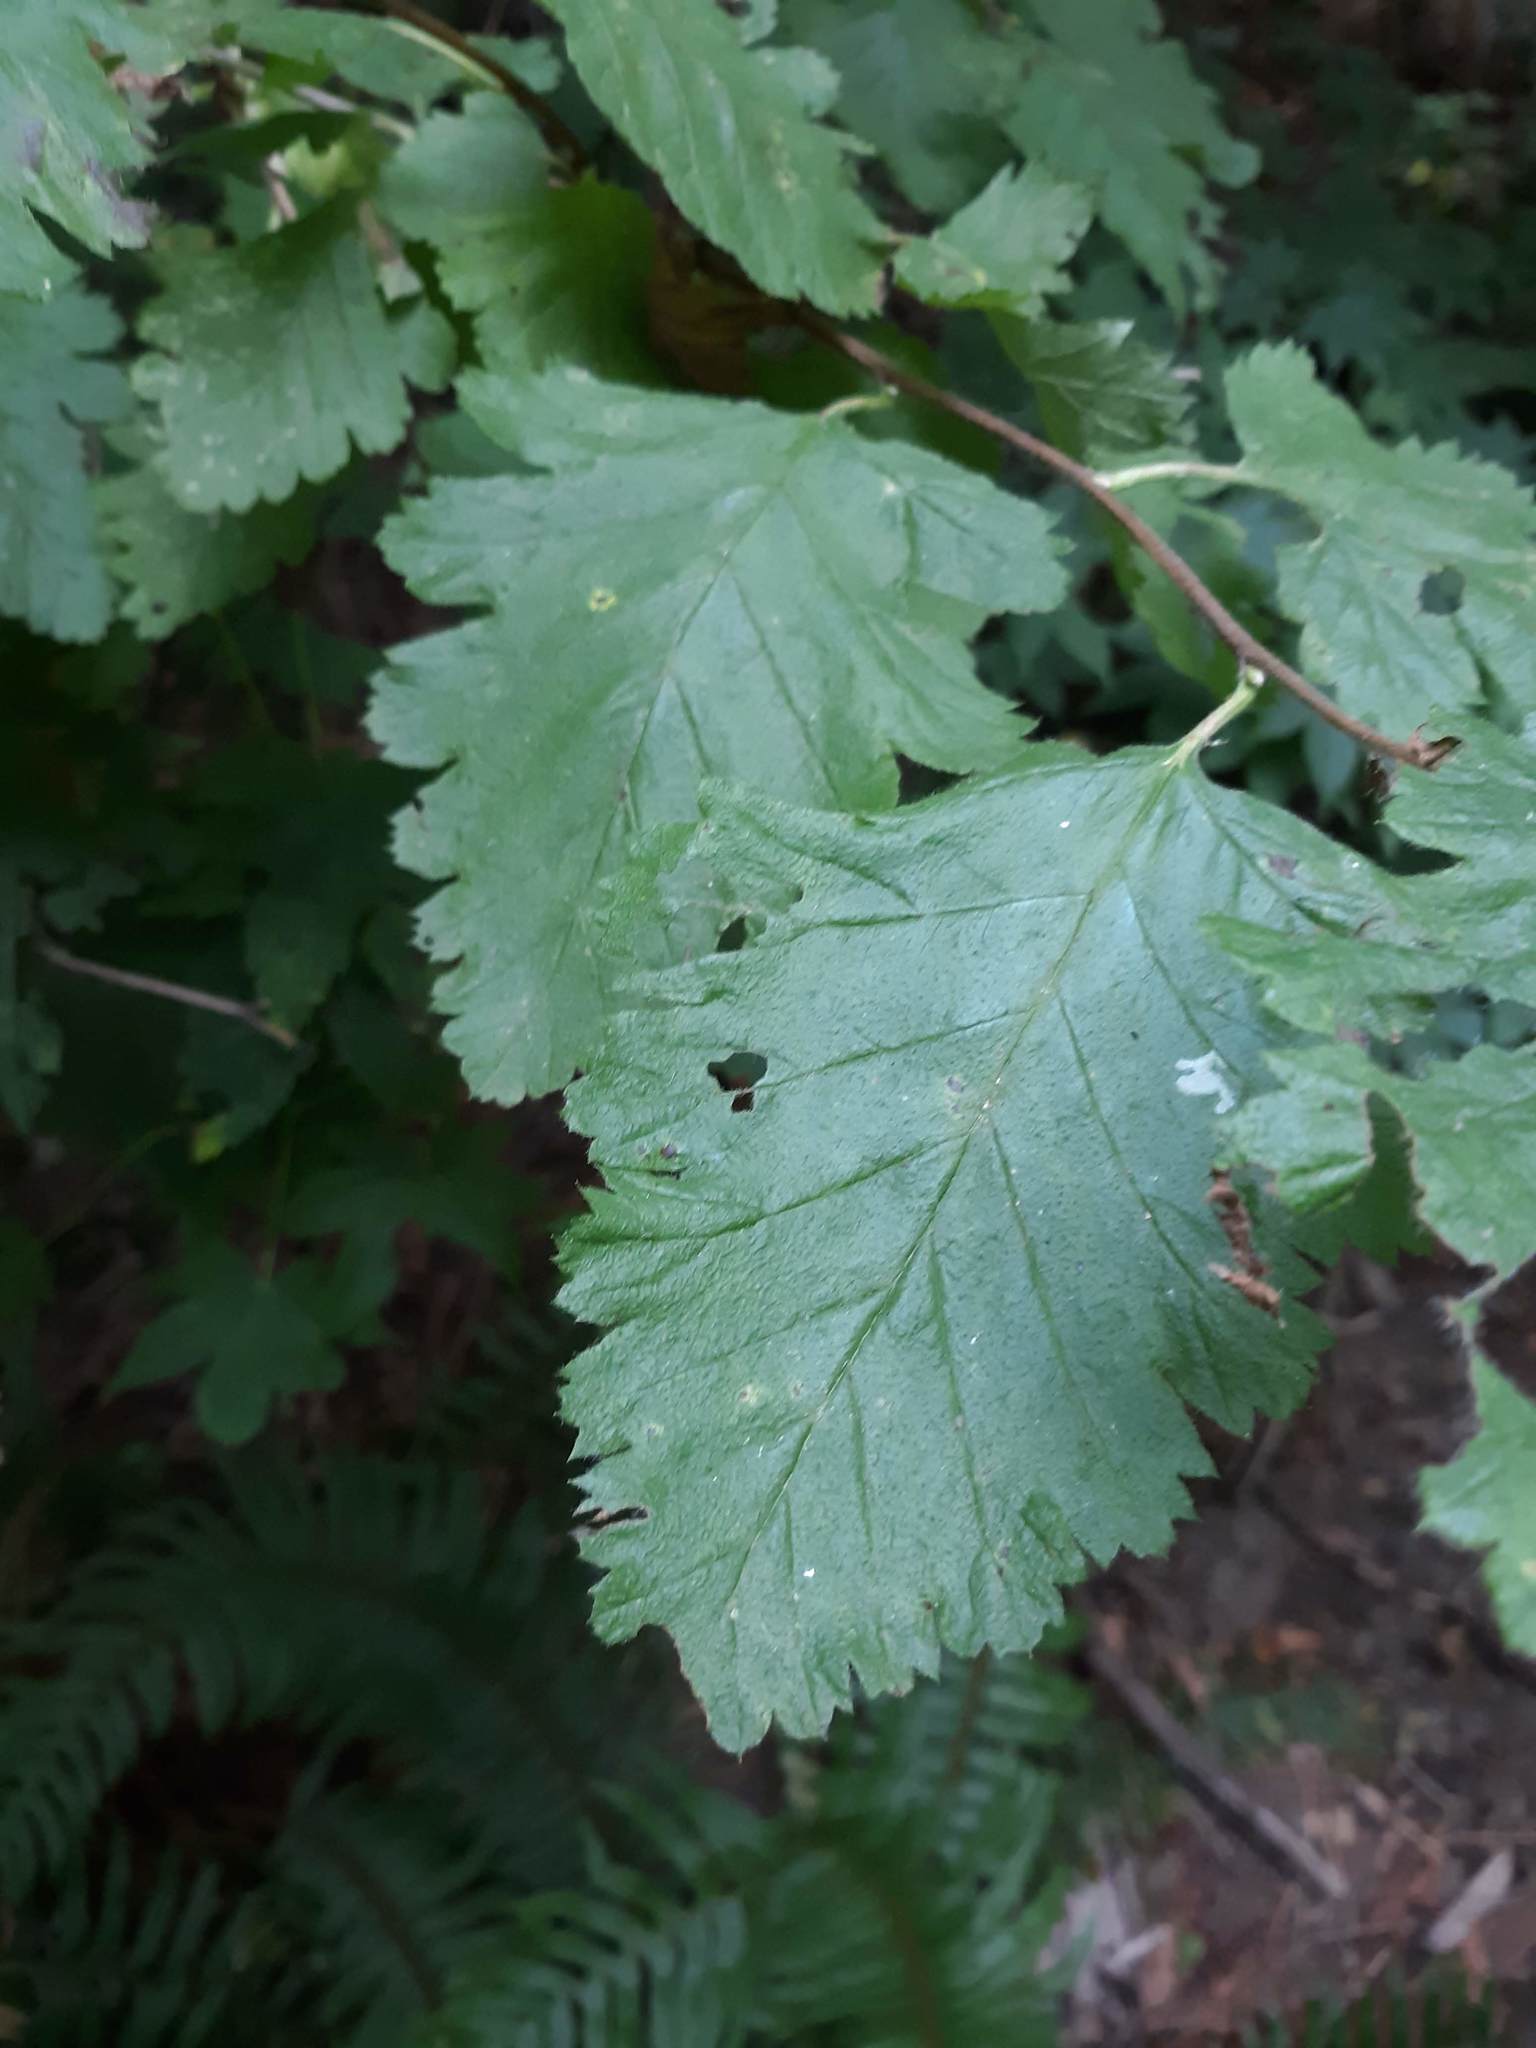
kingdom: Plantae
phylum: Tracheophyta
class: Magnoliopsida
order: Rosales
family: Rosaceae
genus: Holodiscus
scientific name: Holodiscus discolor
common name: Oceanspray
